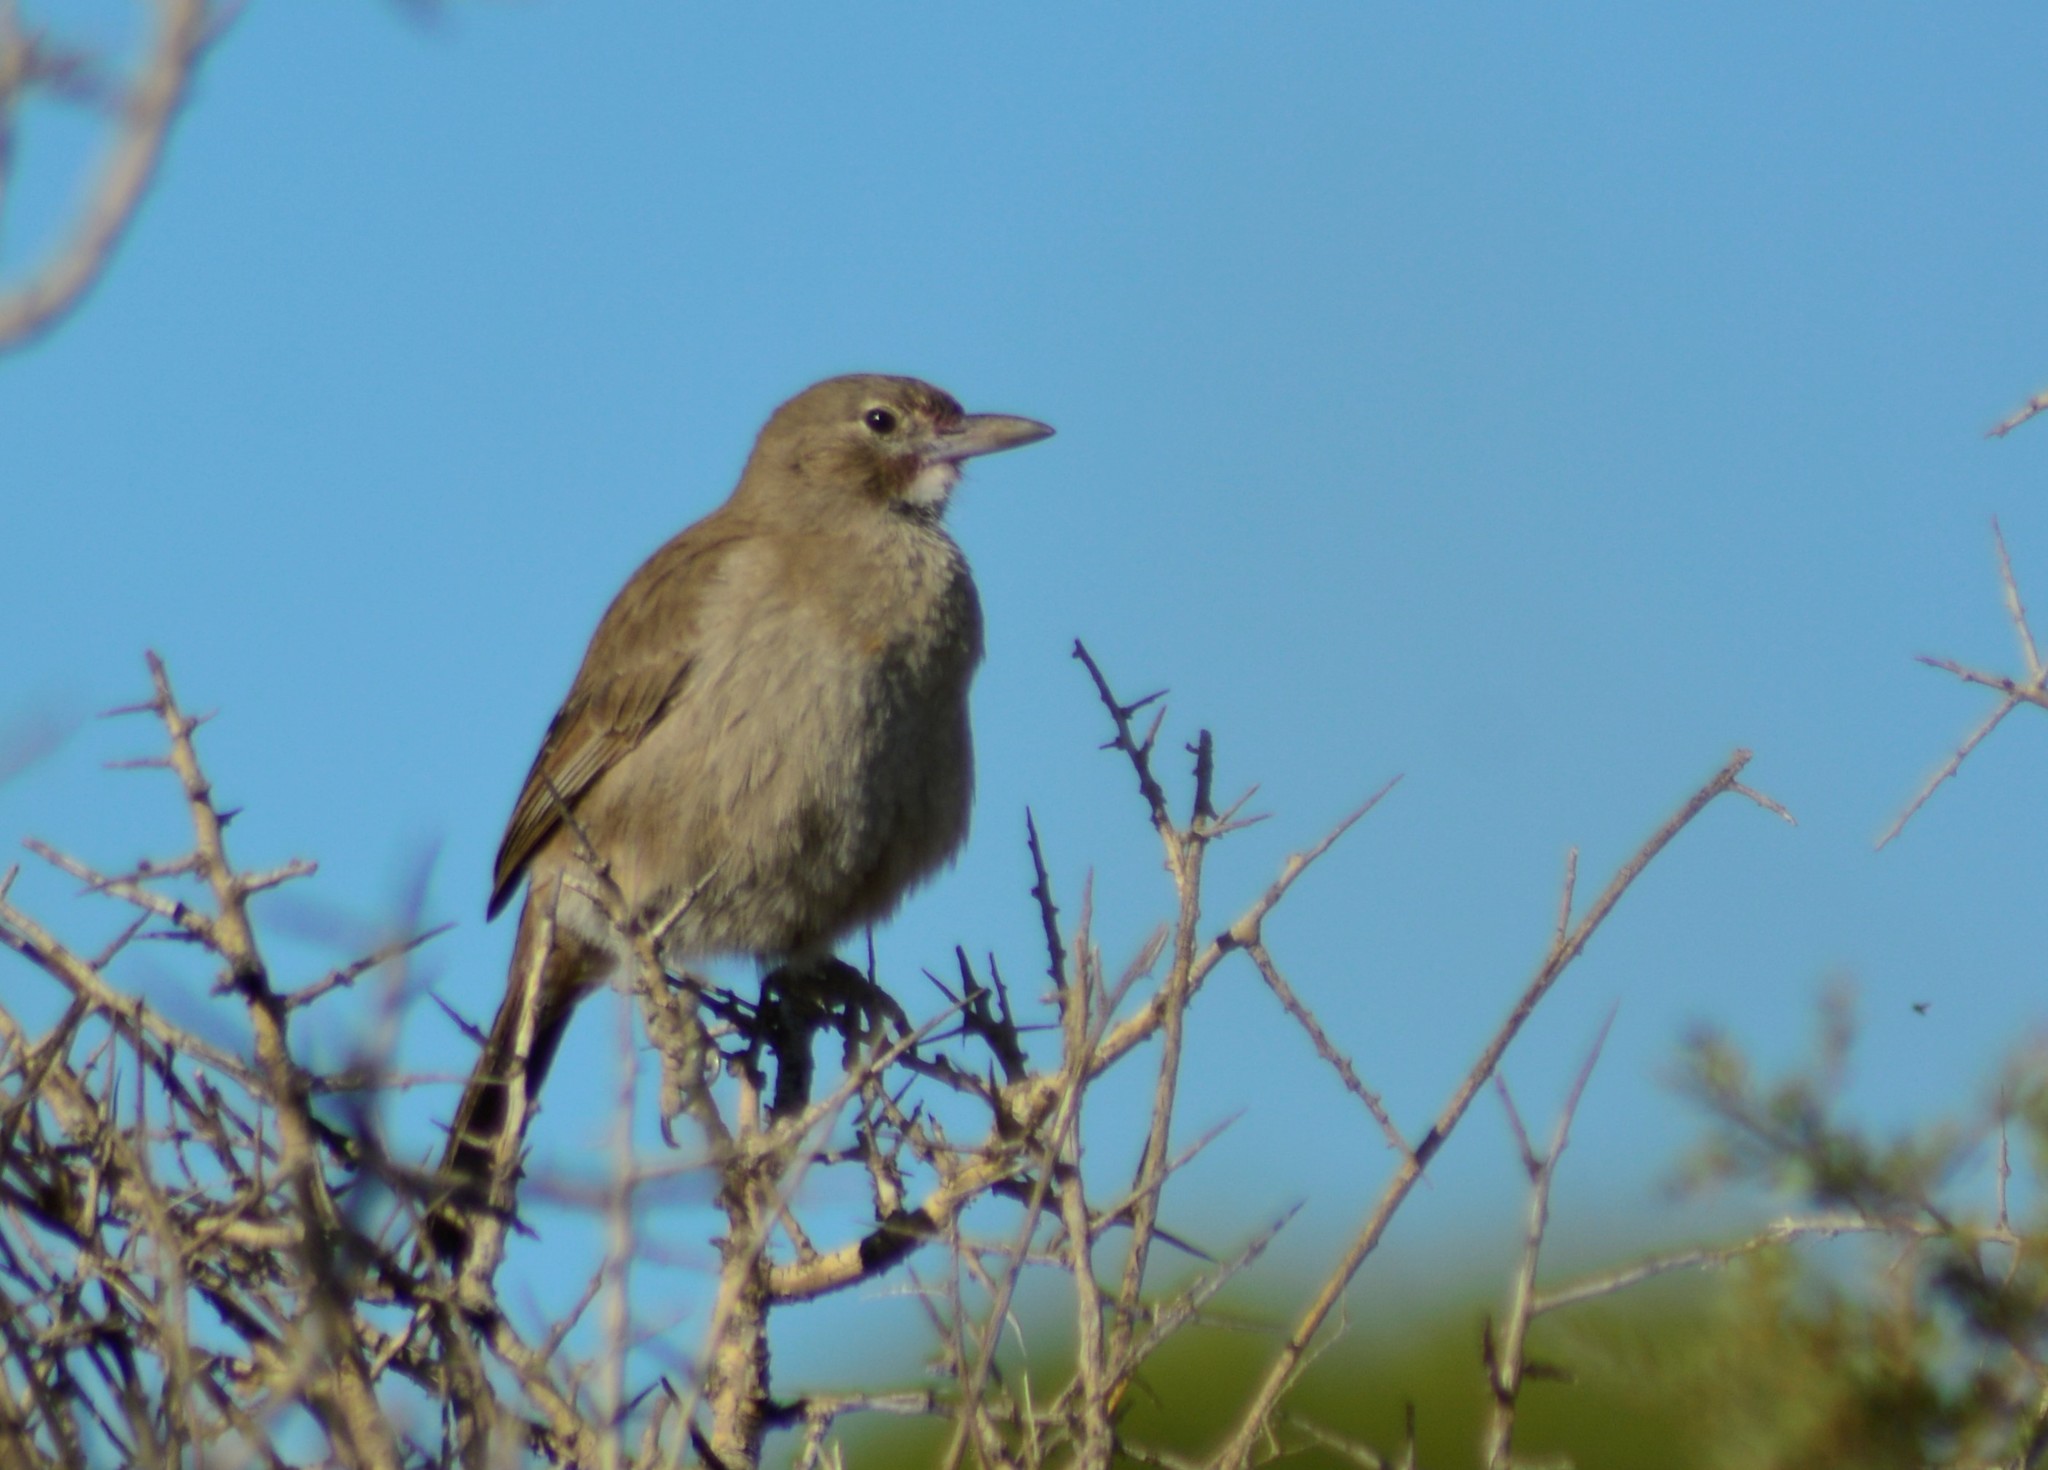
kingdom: Animalia
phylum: Chordata
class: Aves
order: Passeriformes
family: Furnariidae
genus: Pseudoseisura
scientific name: Pseudoseisura gutturalis
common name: White-throated cacholote
